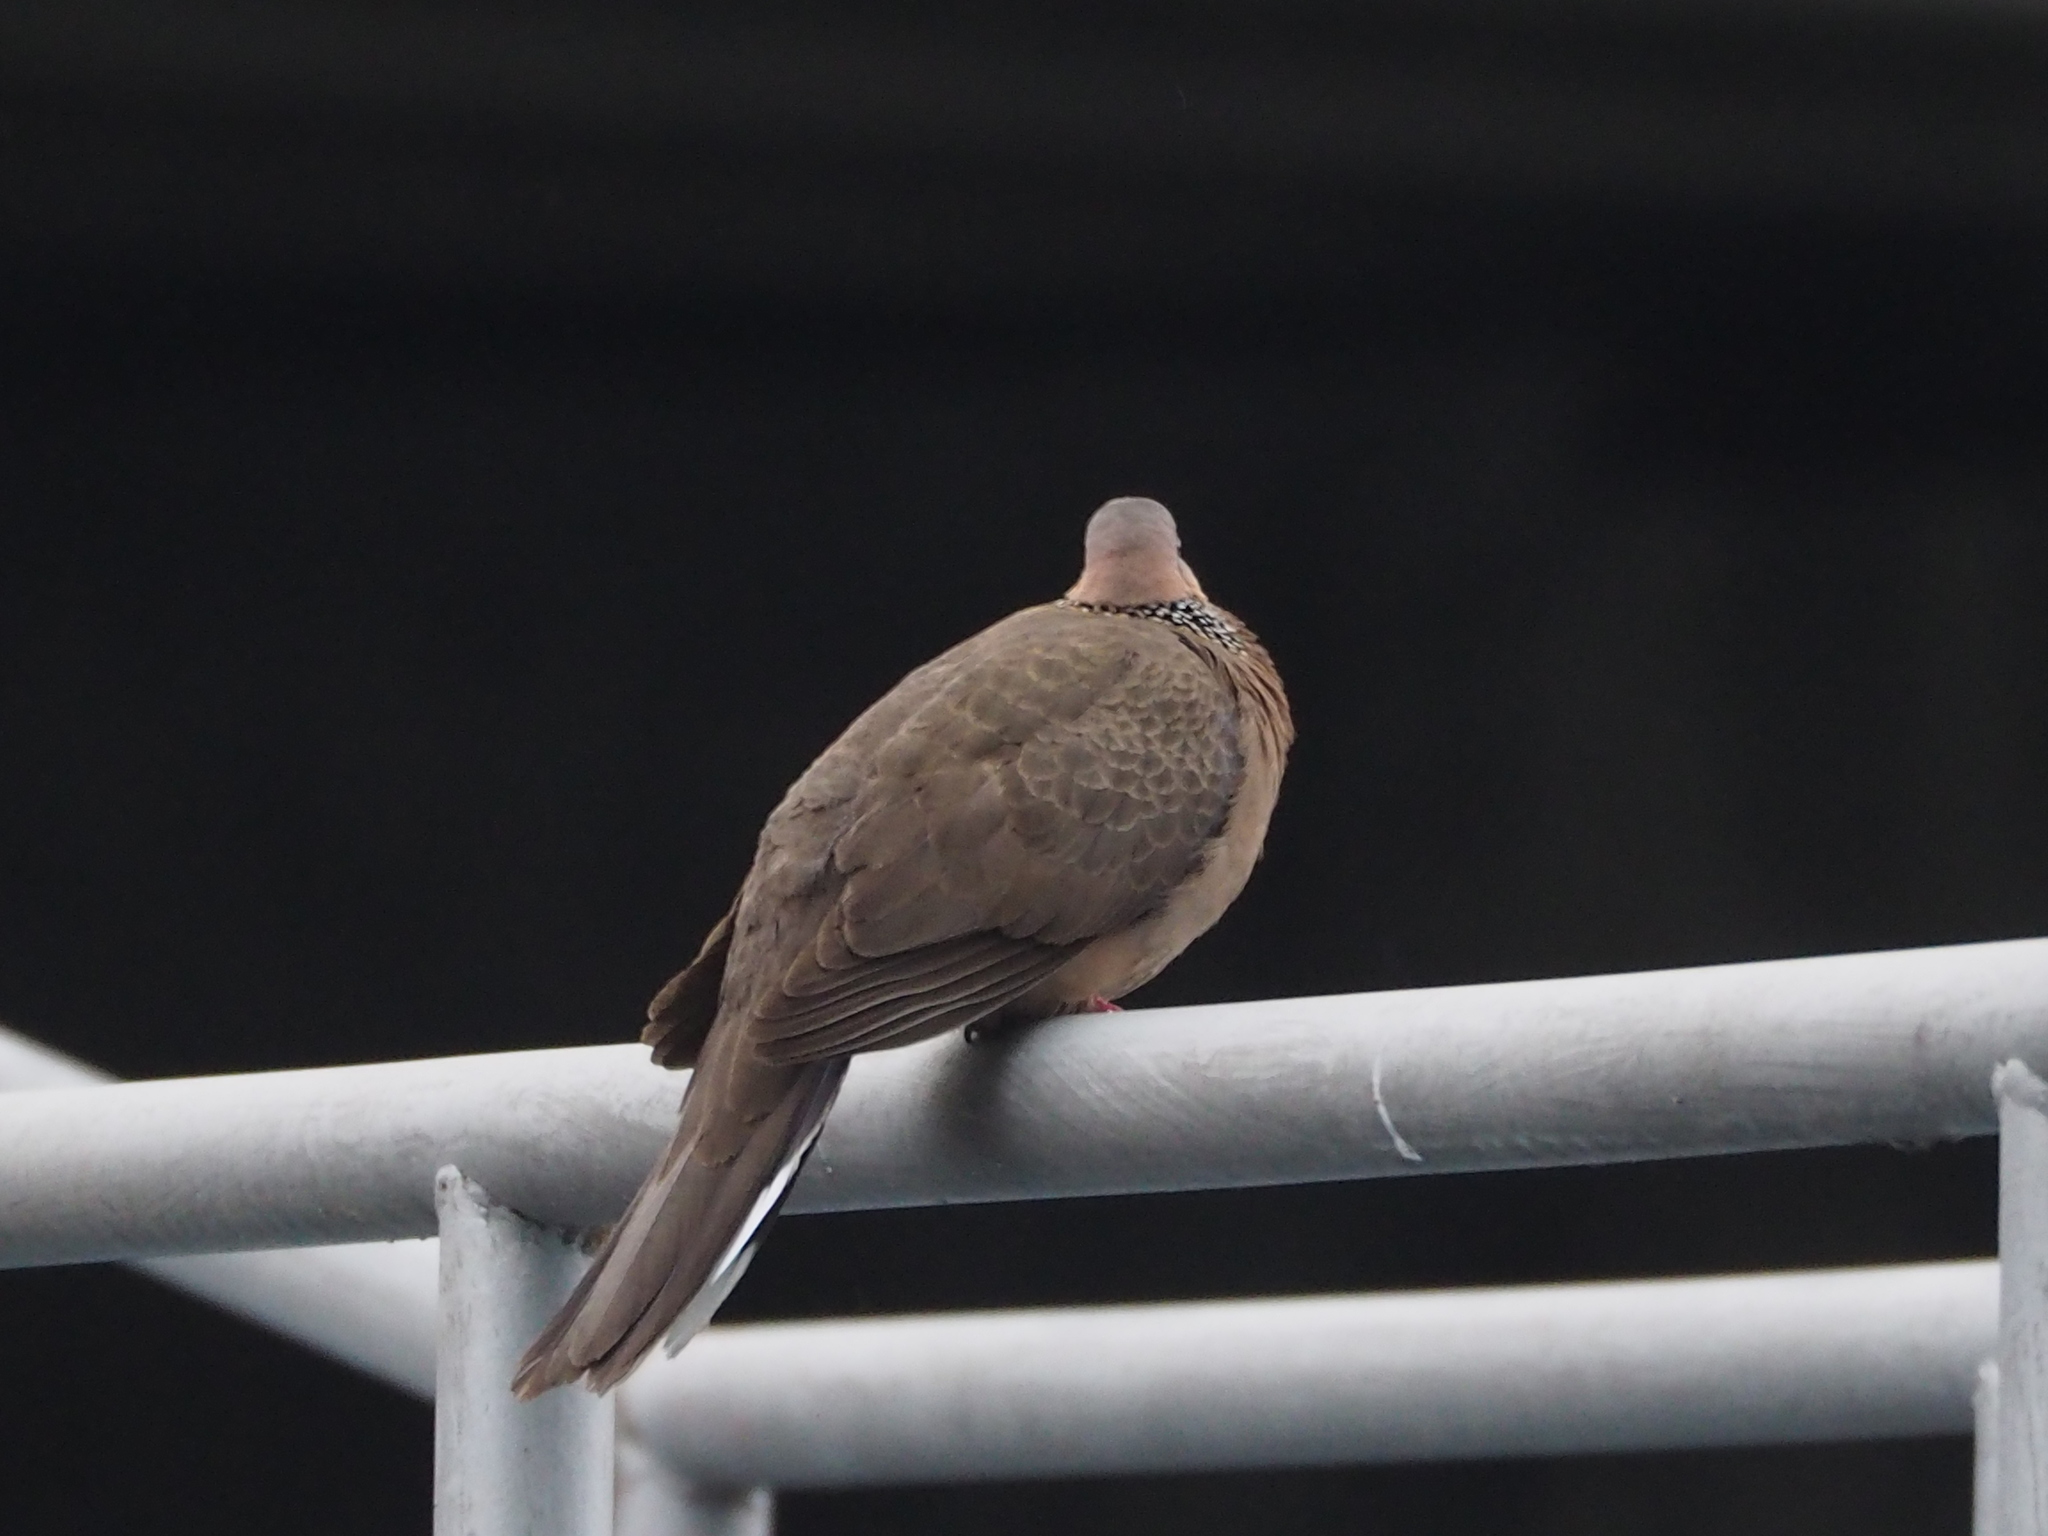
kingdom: Animalia
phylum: Chordata
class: Aves
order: Columbiformes
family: Columbidae
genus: Spilopelia
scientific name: Spilopelia chinensis
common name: Spotted dove
